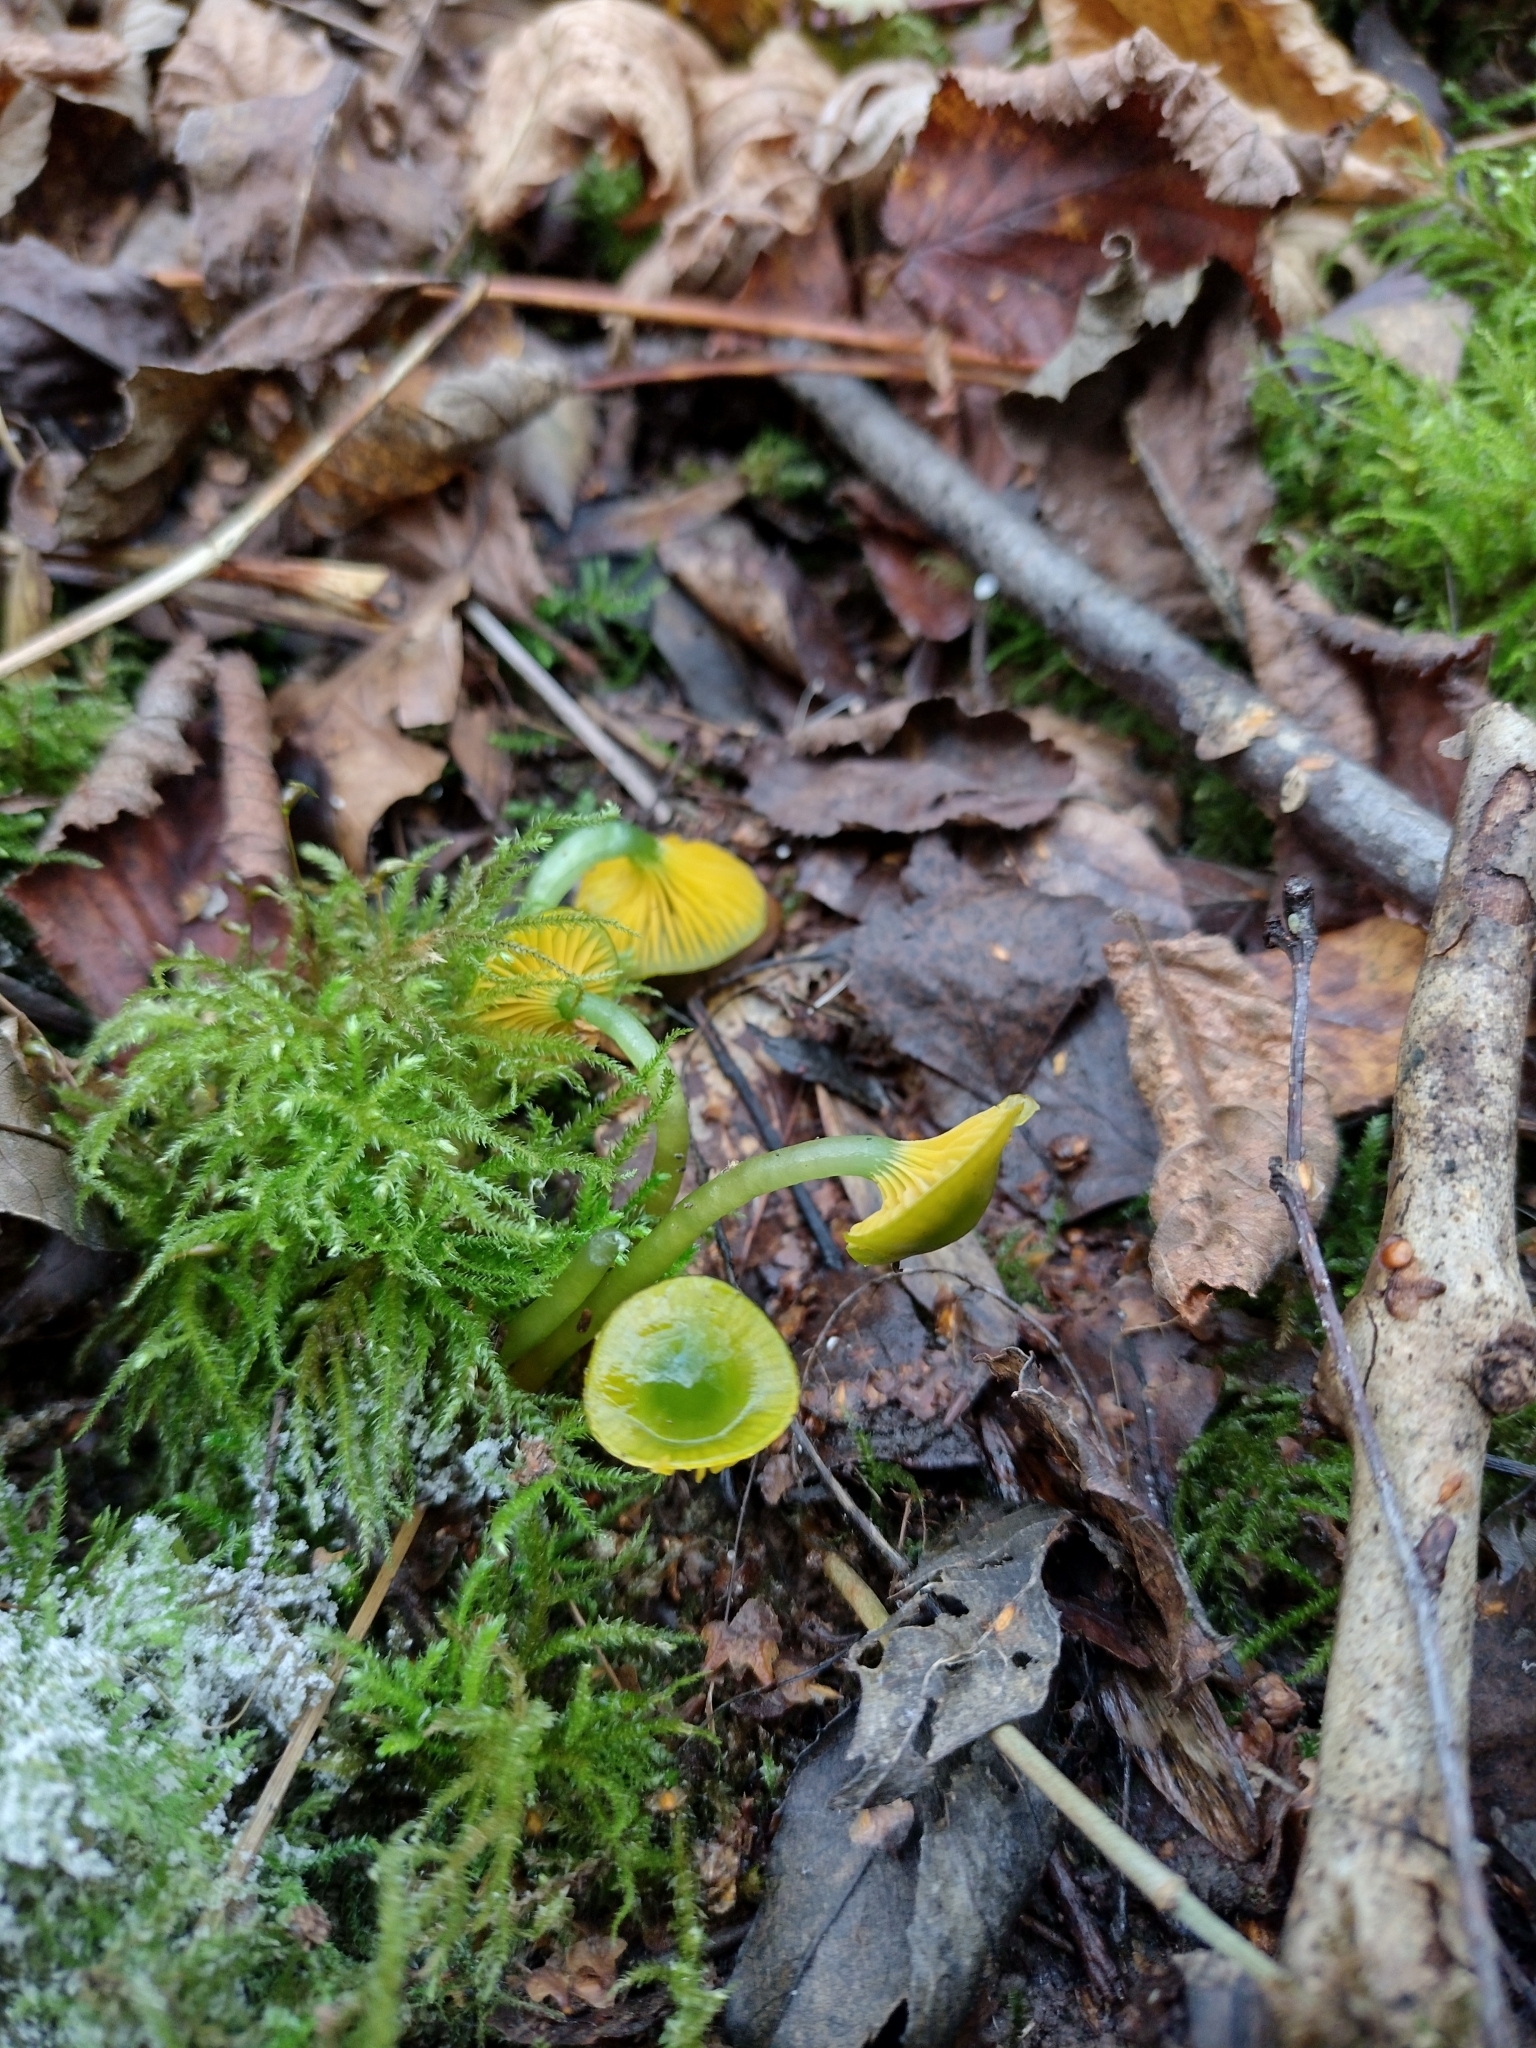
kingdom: Fungi
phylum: Basidiomycota
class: Agaricomycetes
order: Agaricales
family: Hygrophoraceae
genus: Gliophorus
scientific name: Gliophorus psittacinus
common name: Parrot wax-cap
